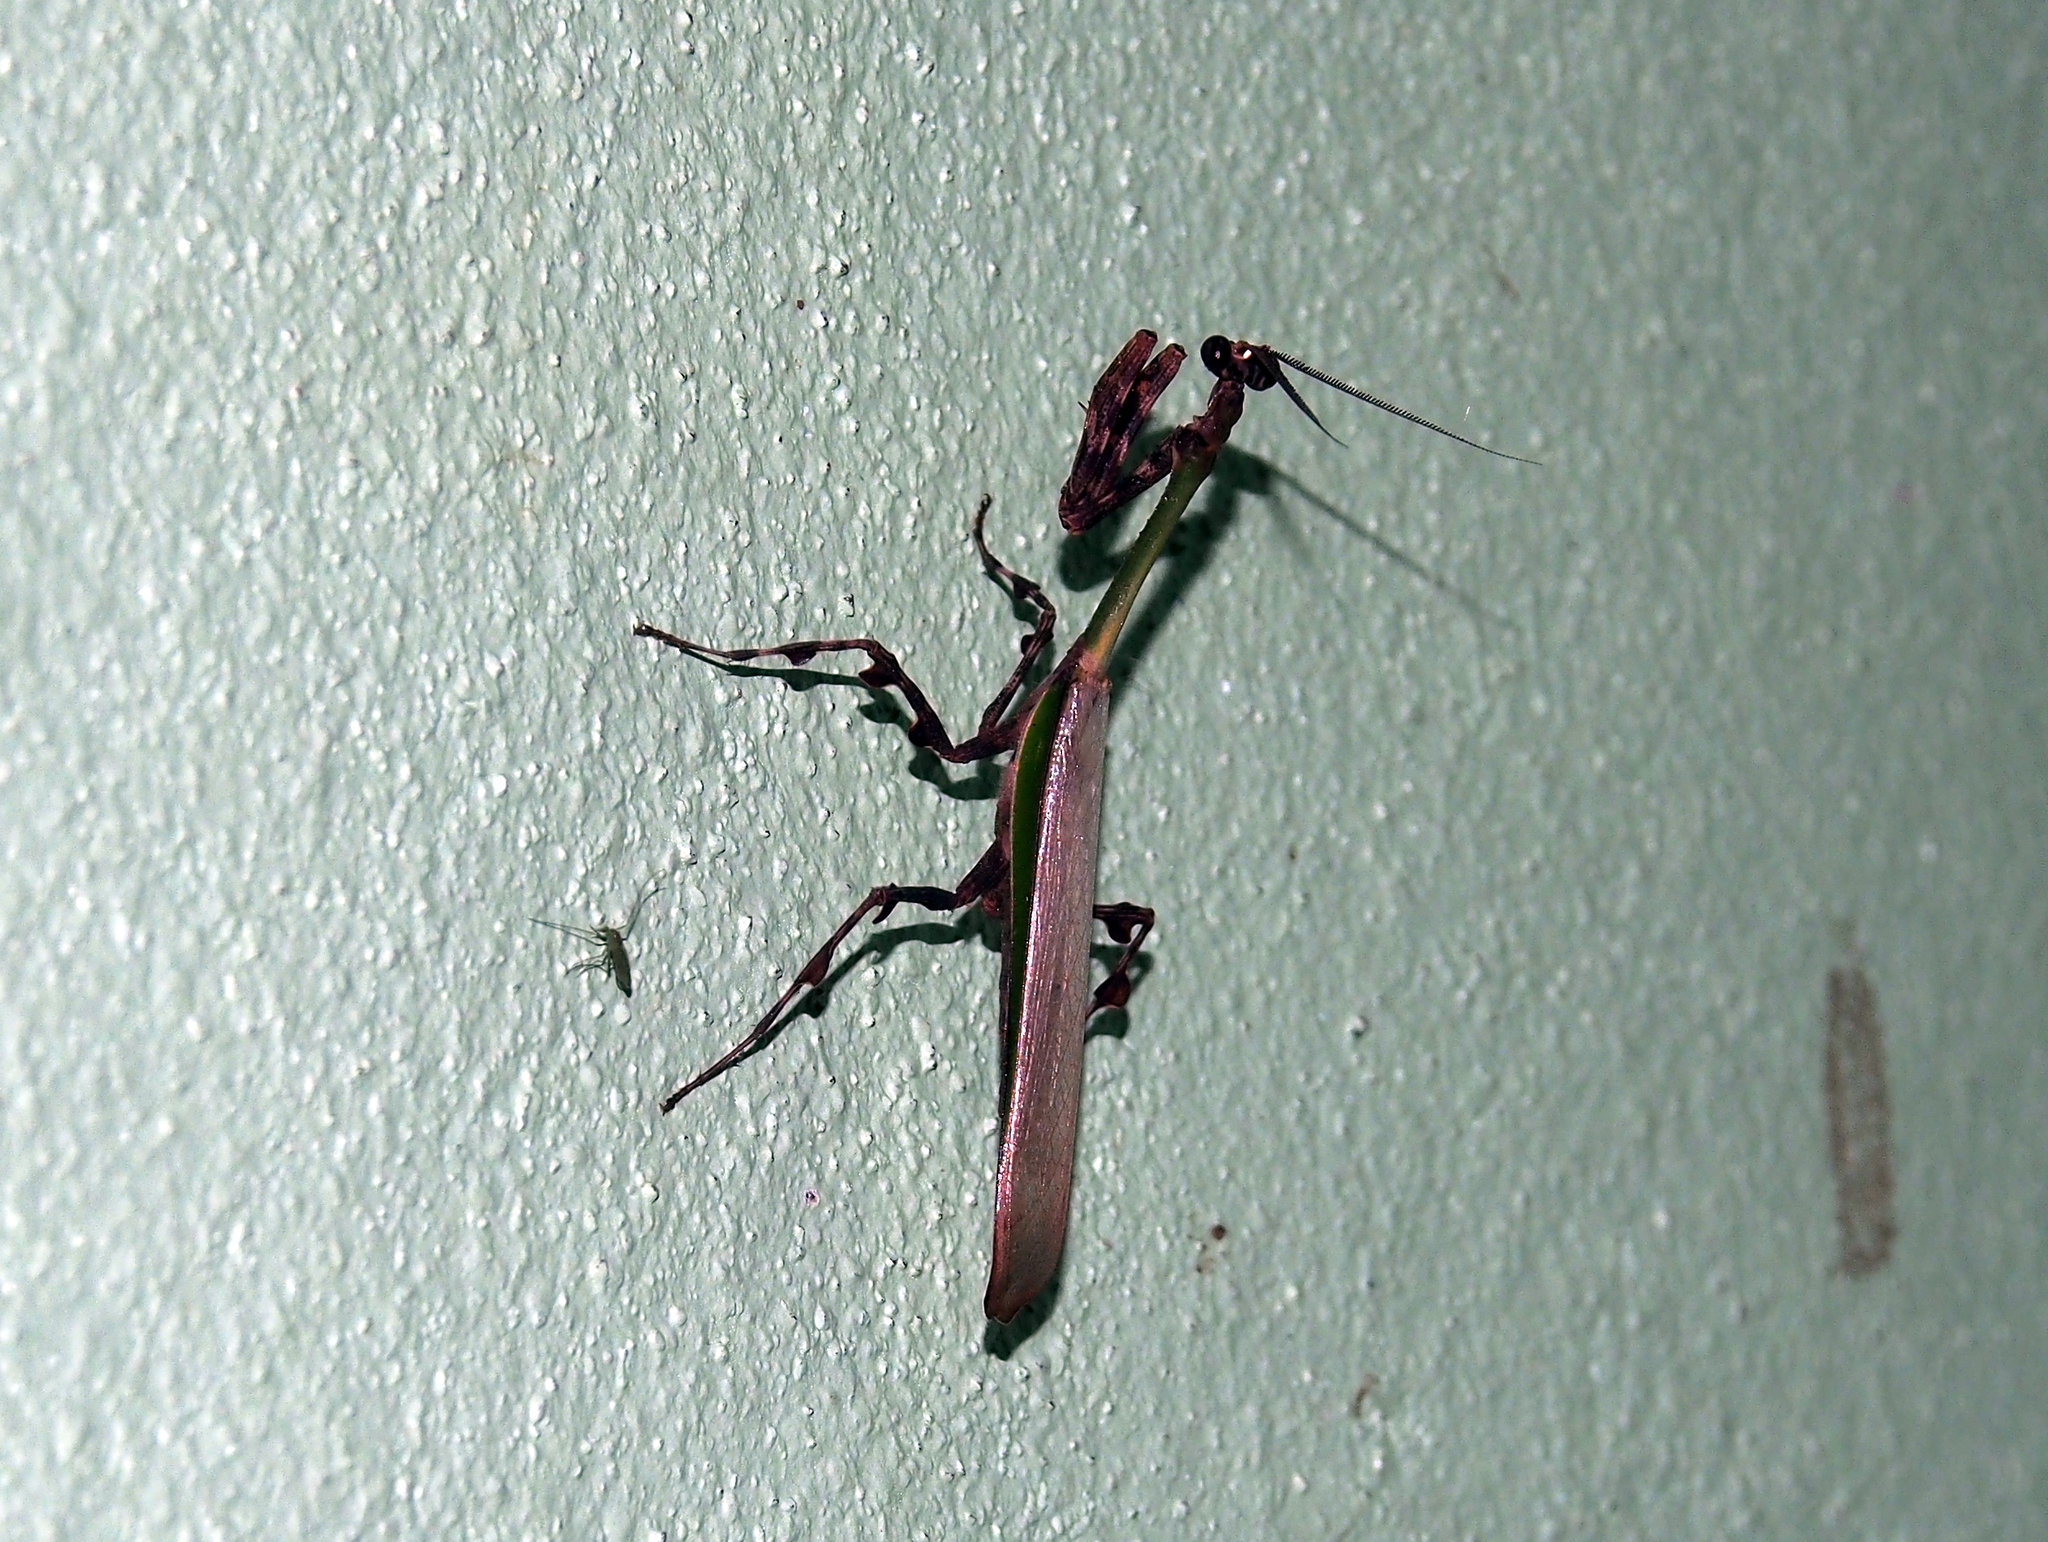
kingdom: Animalia
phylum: Arthropoda
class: Insecta
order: Mantodea
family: Mantidae
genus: Vates
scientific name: Vates pectinicornis
